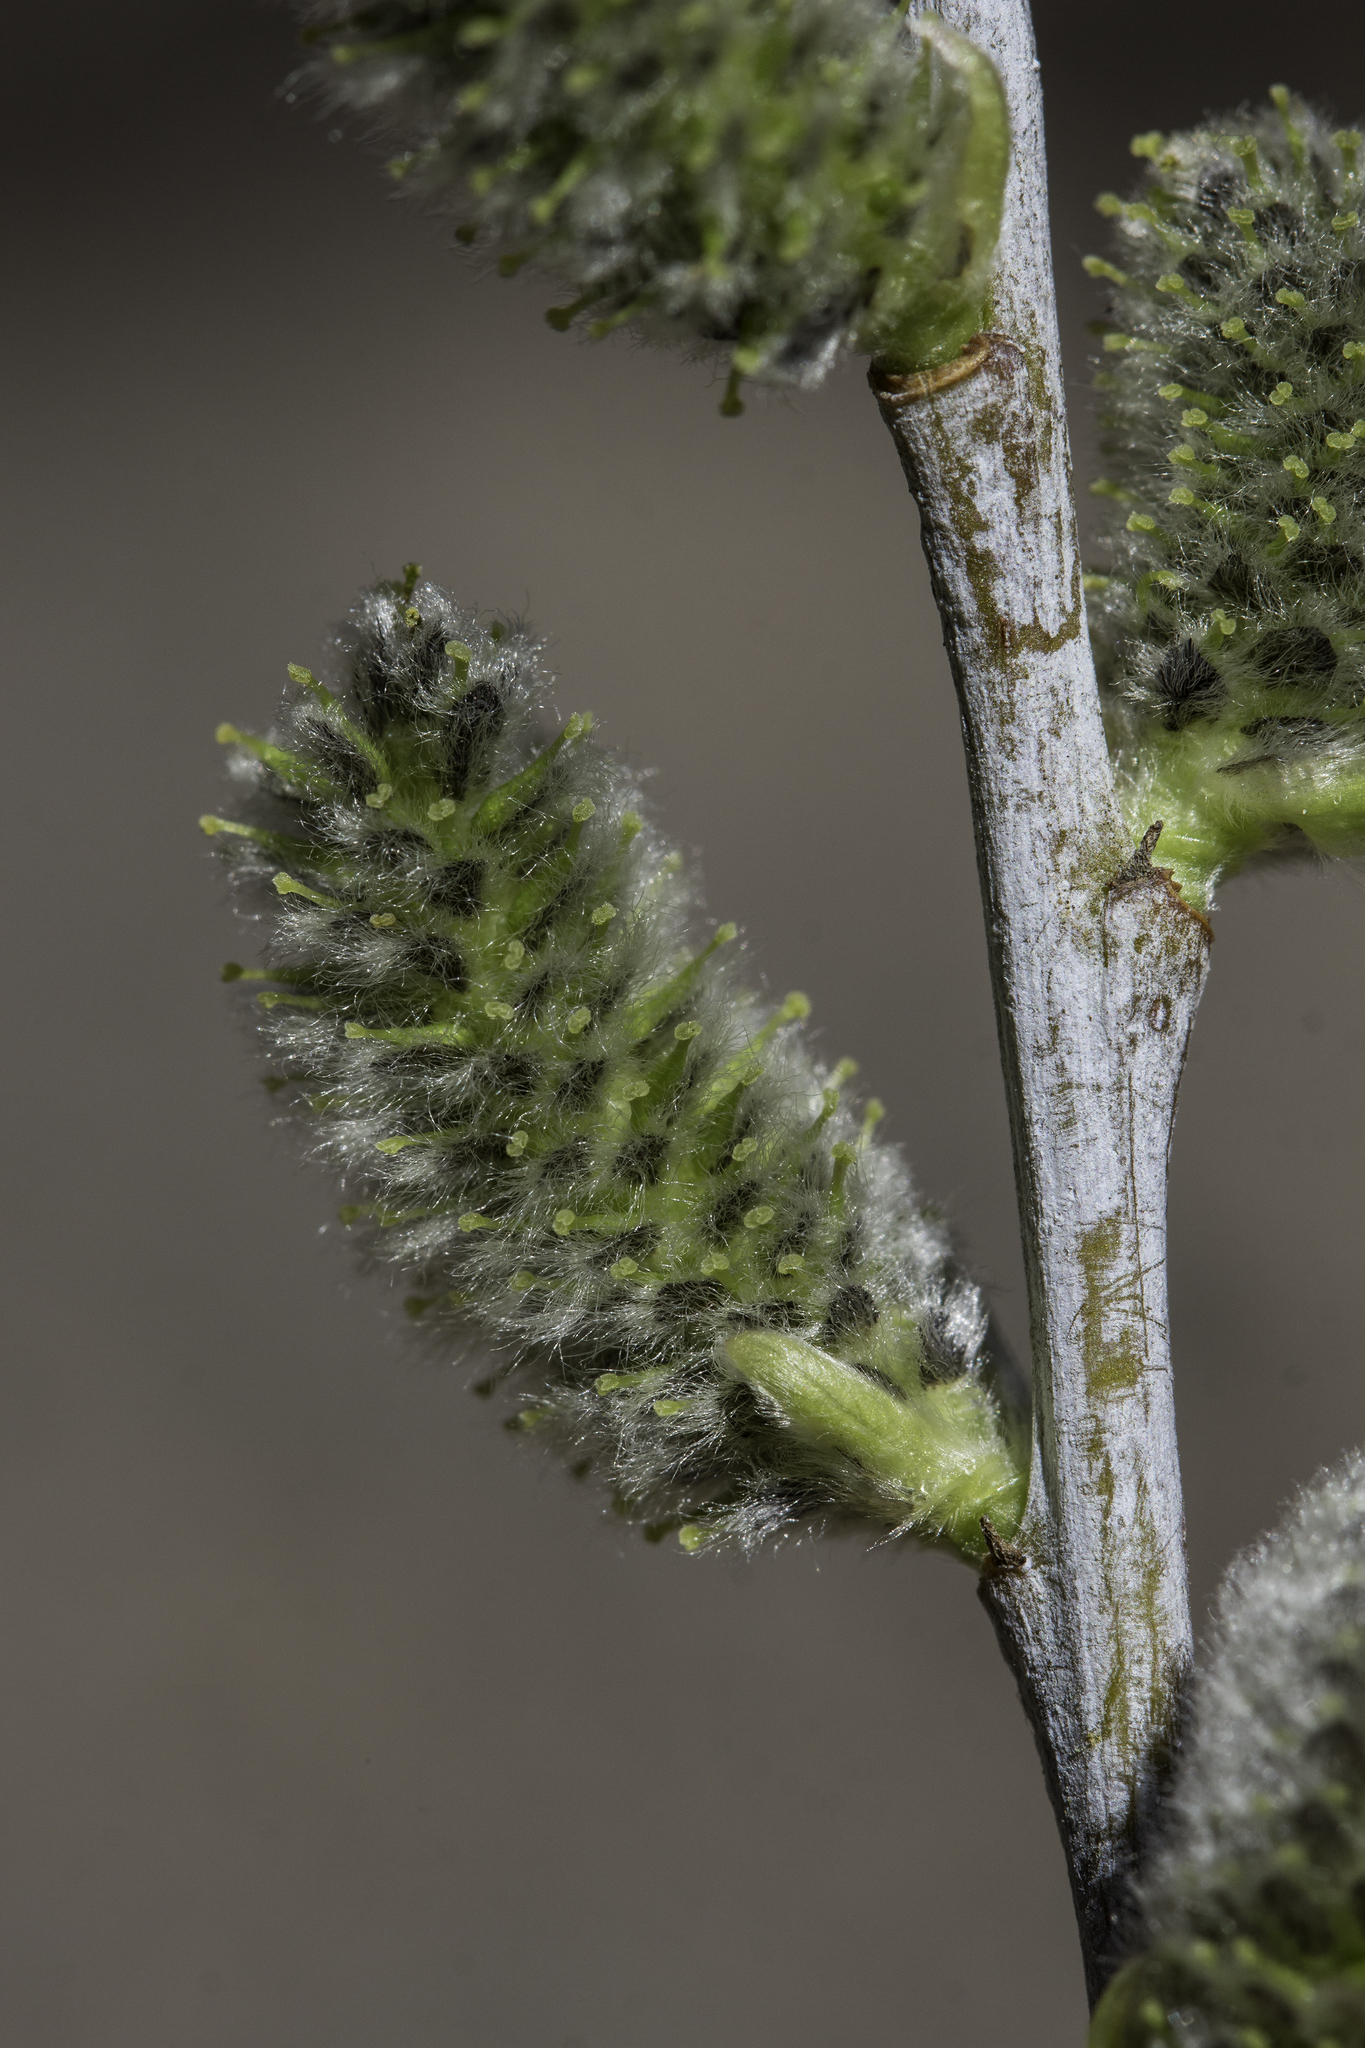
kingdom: Plantae
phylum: Tracheophyta
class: Magnoliopsida
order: Malpighiales
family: Salicaceae
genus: Salix
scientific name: Salix irrorata
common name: Blue-stem willow
